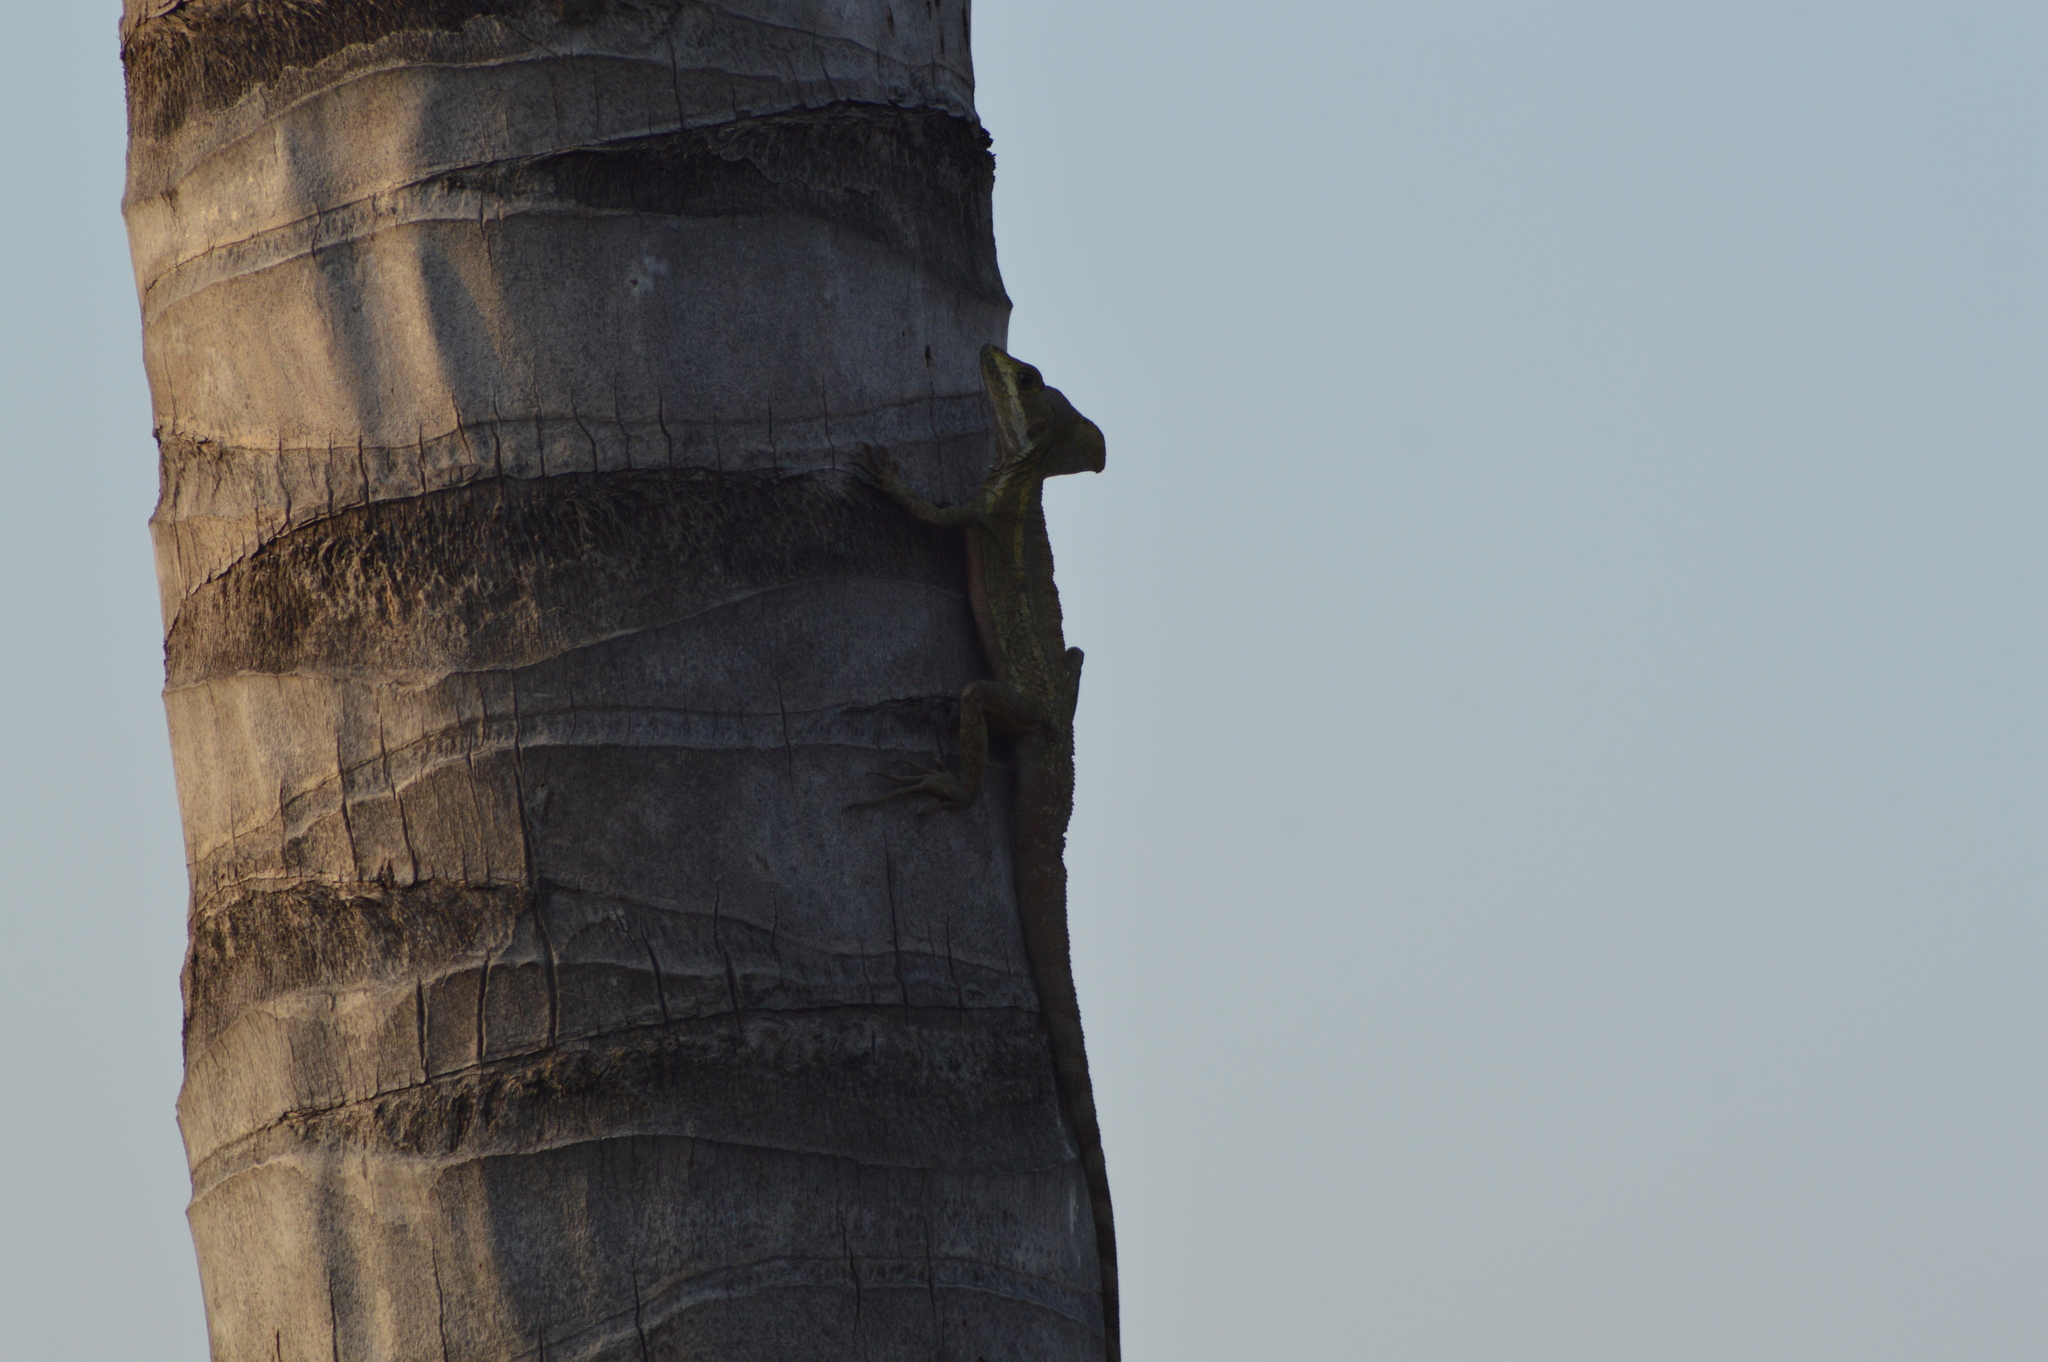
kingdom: Animalia
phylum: Chordata
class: Squamata
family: Corytophanidae
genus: Basiliscus
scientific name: Basiliscus vittatus
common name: Brown basilisk
